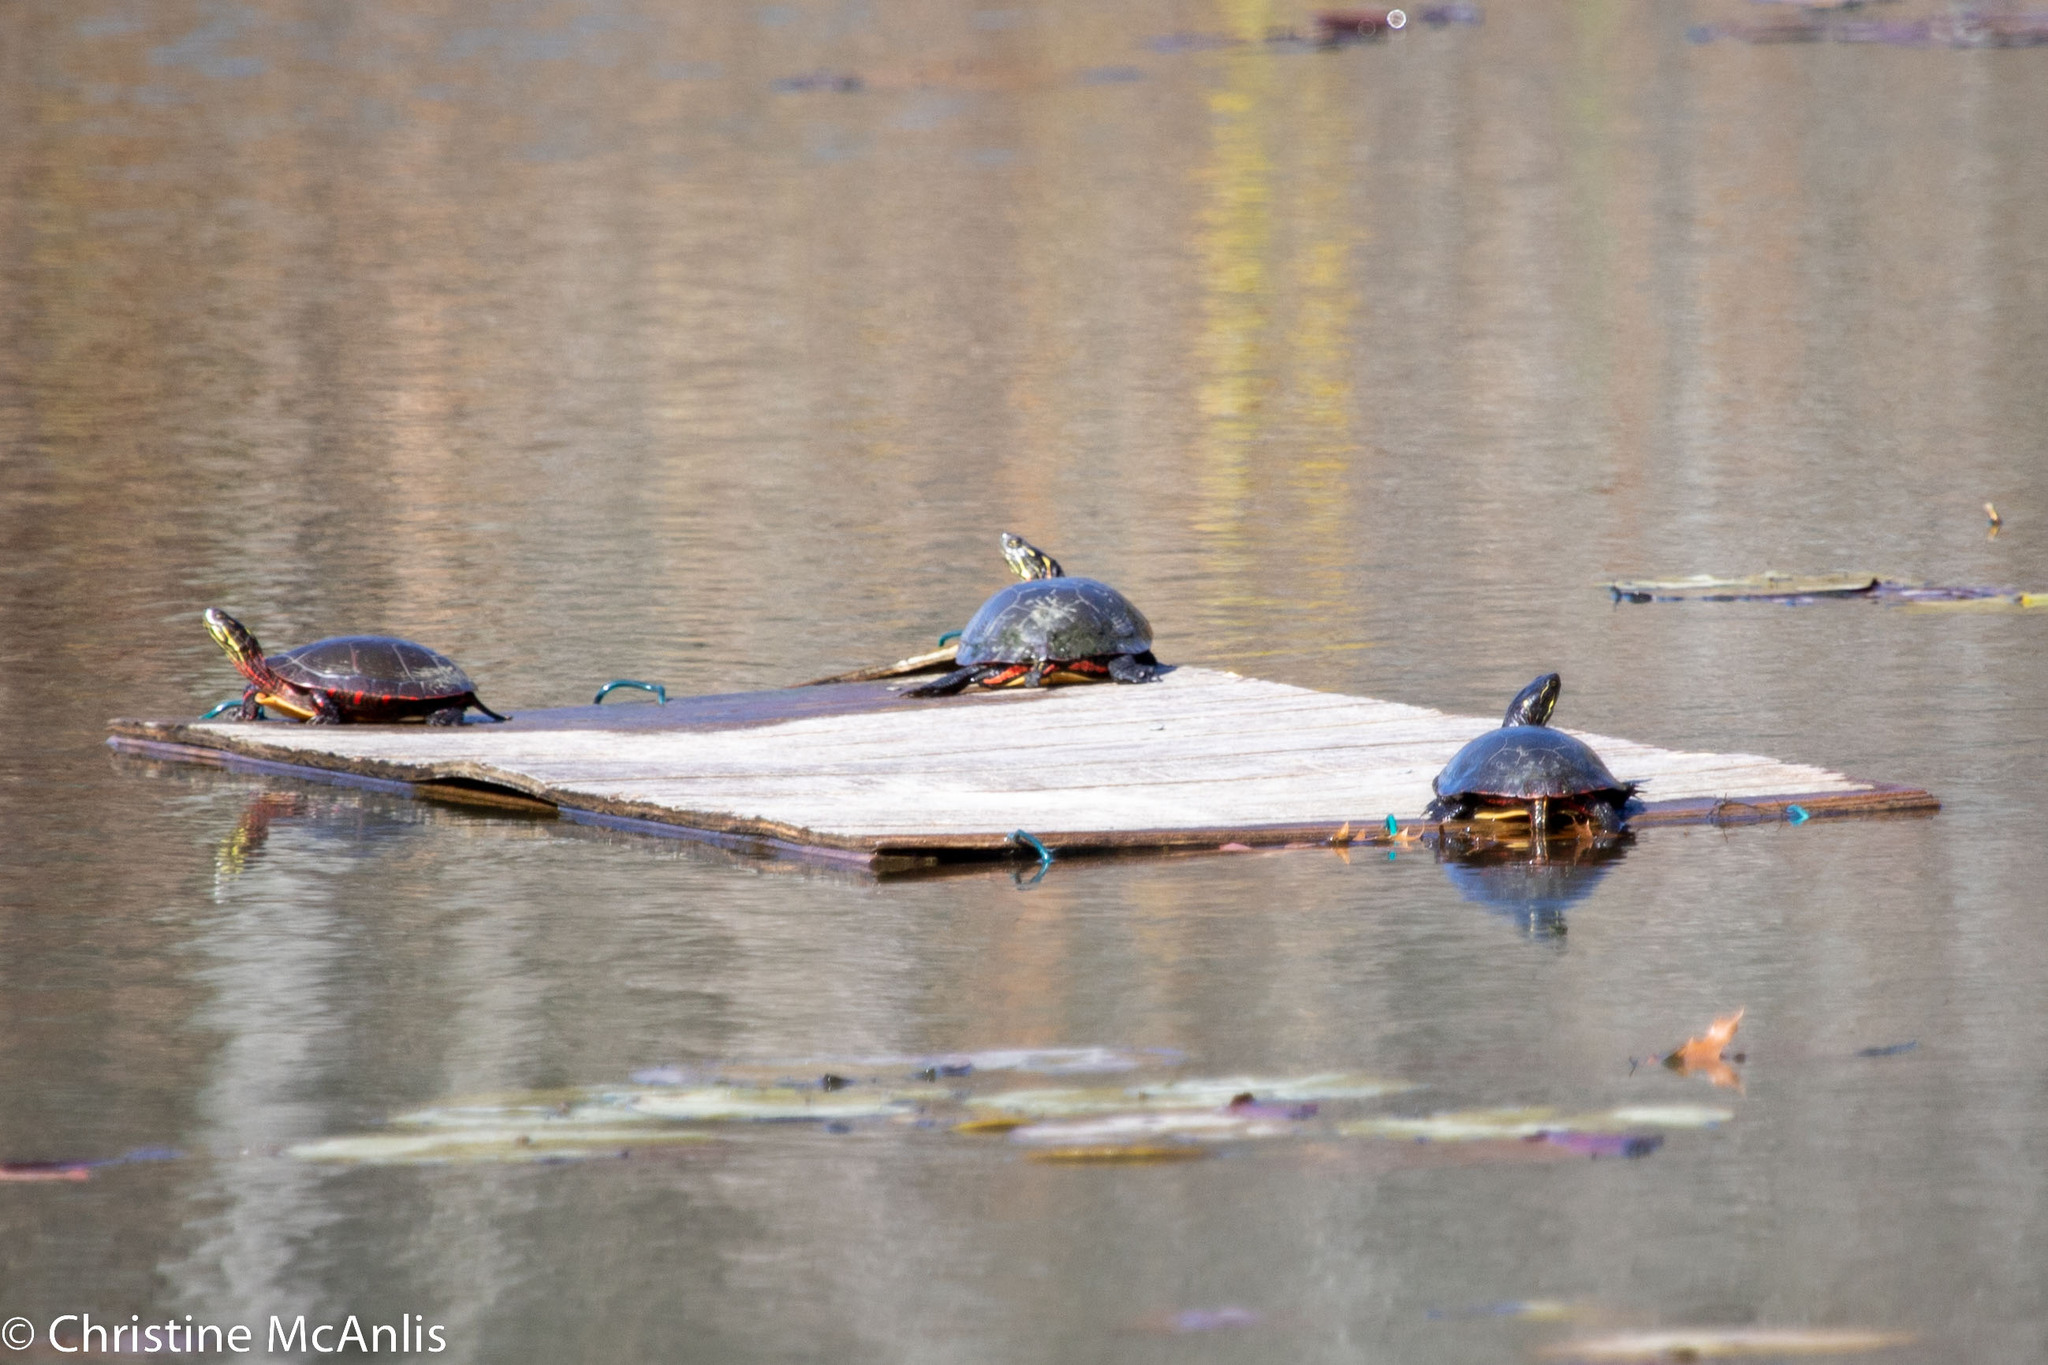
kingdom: Animalia
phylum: Chordata
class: Testudines
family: Emydidae
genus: Chrysemys
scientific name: Chrysemys picta
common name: Painted turtle
